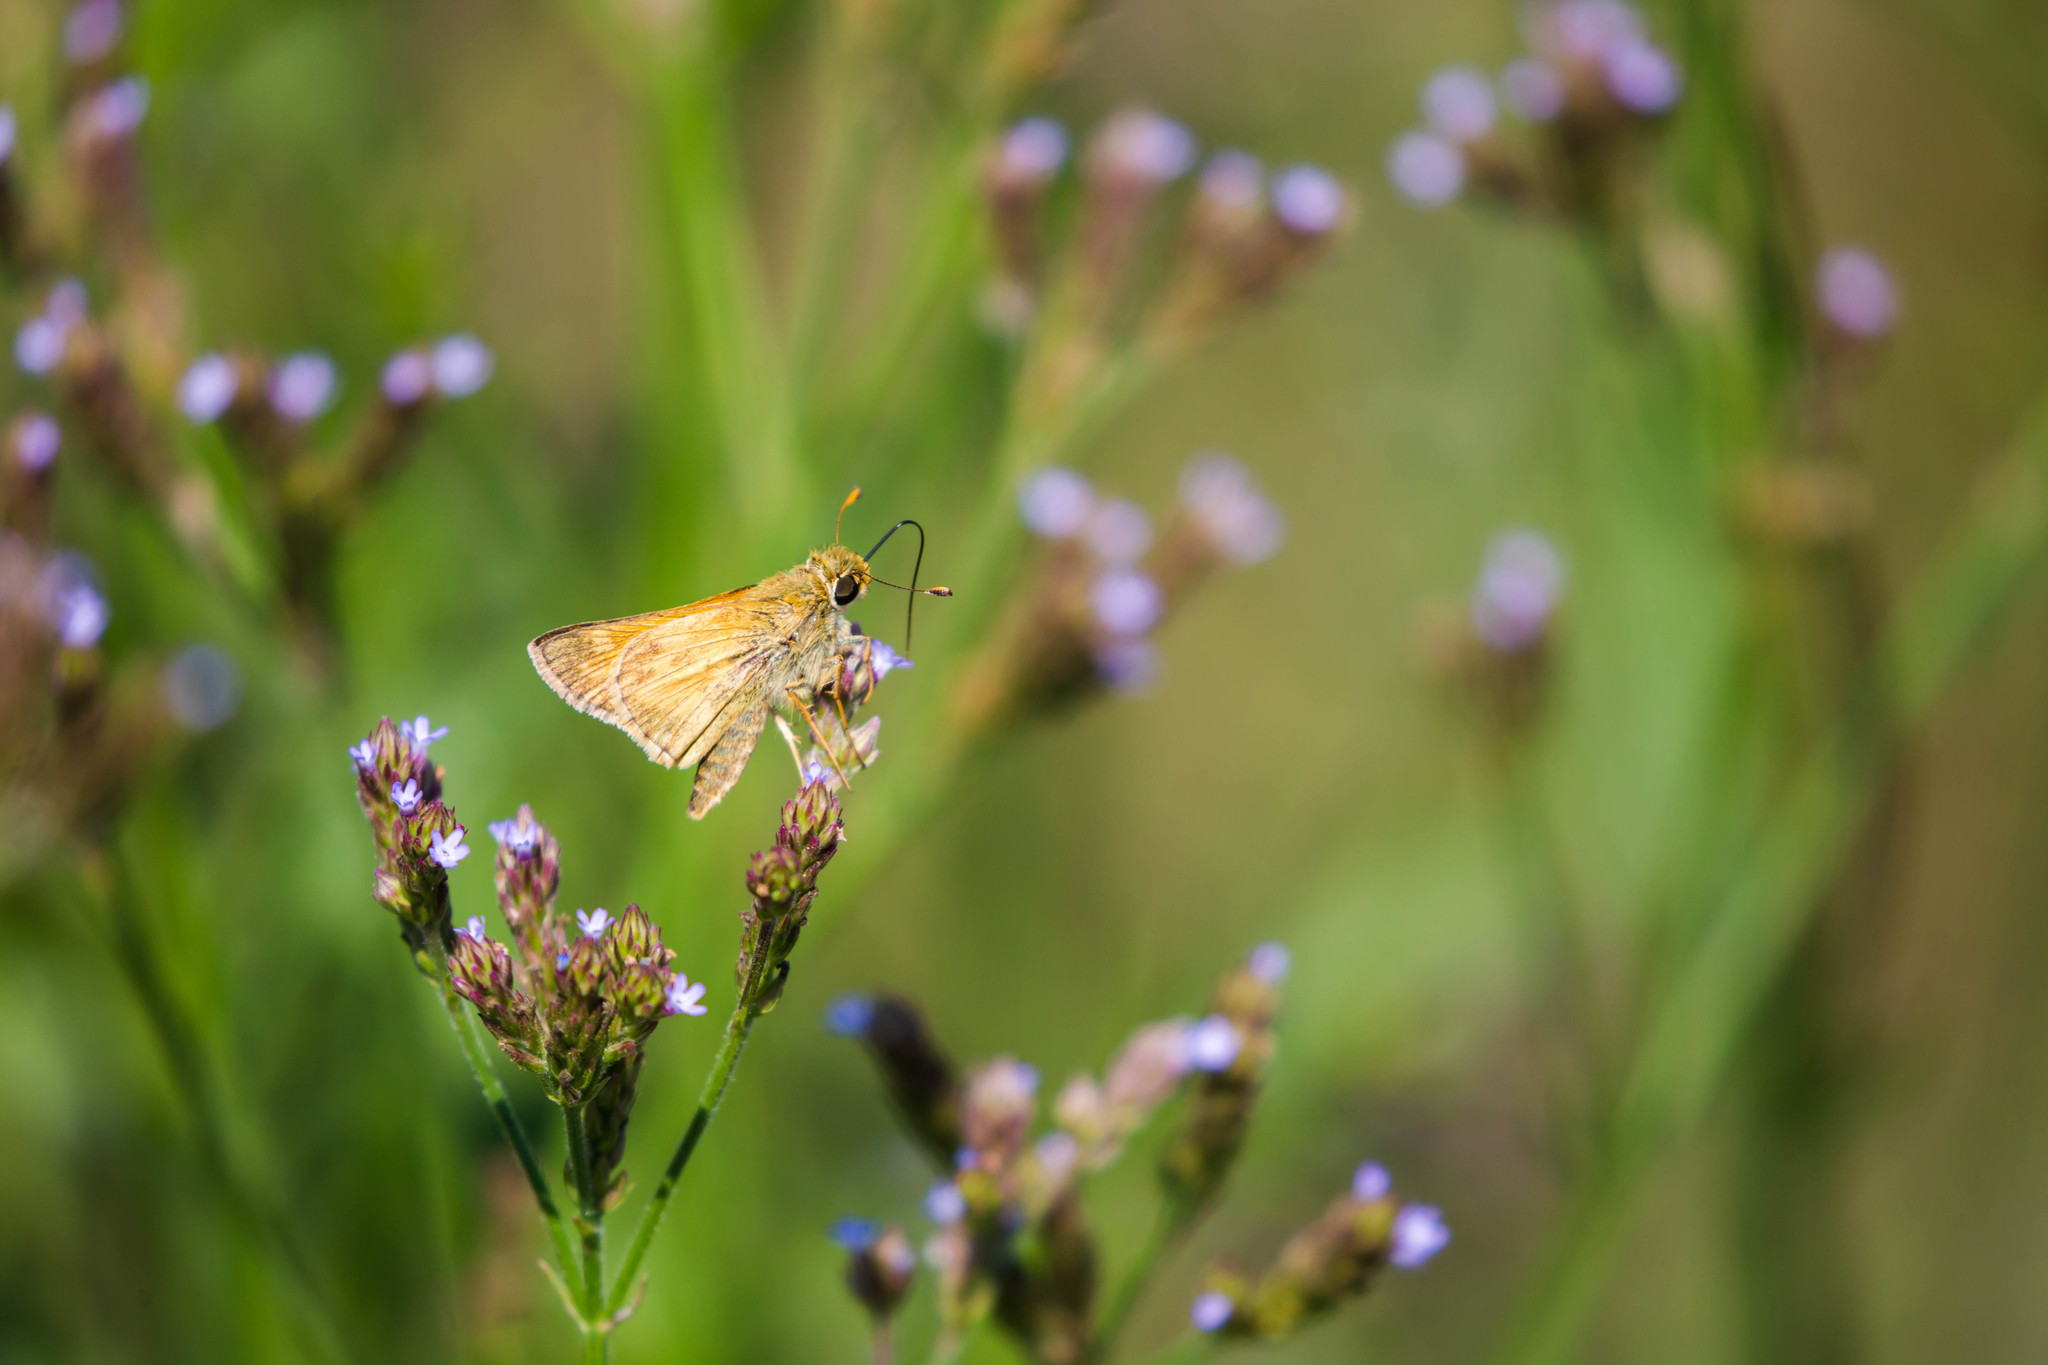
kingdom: Animalia
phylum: Arthropoda
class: Insecta
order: Lepidoptera
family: Hesperiidae
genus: Atalopedes
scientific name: Atalopedes
